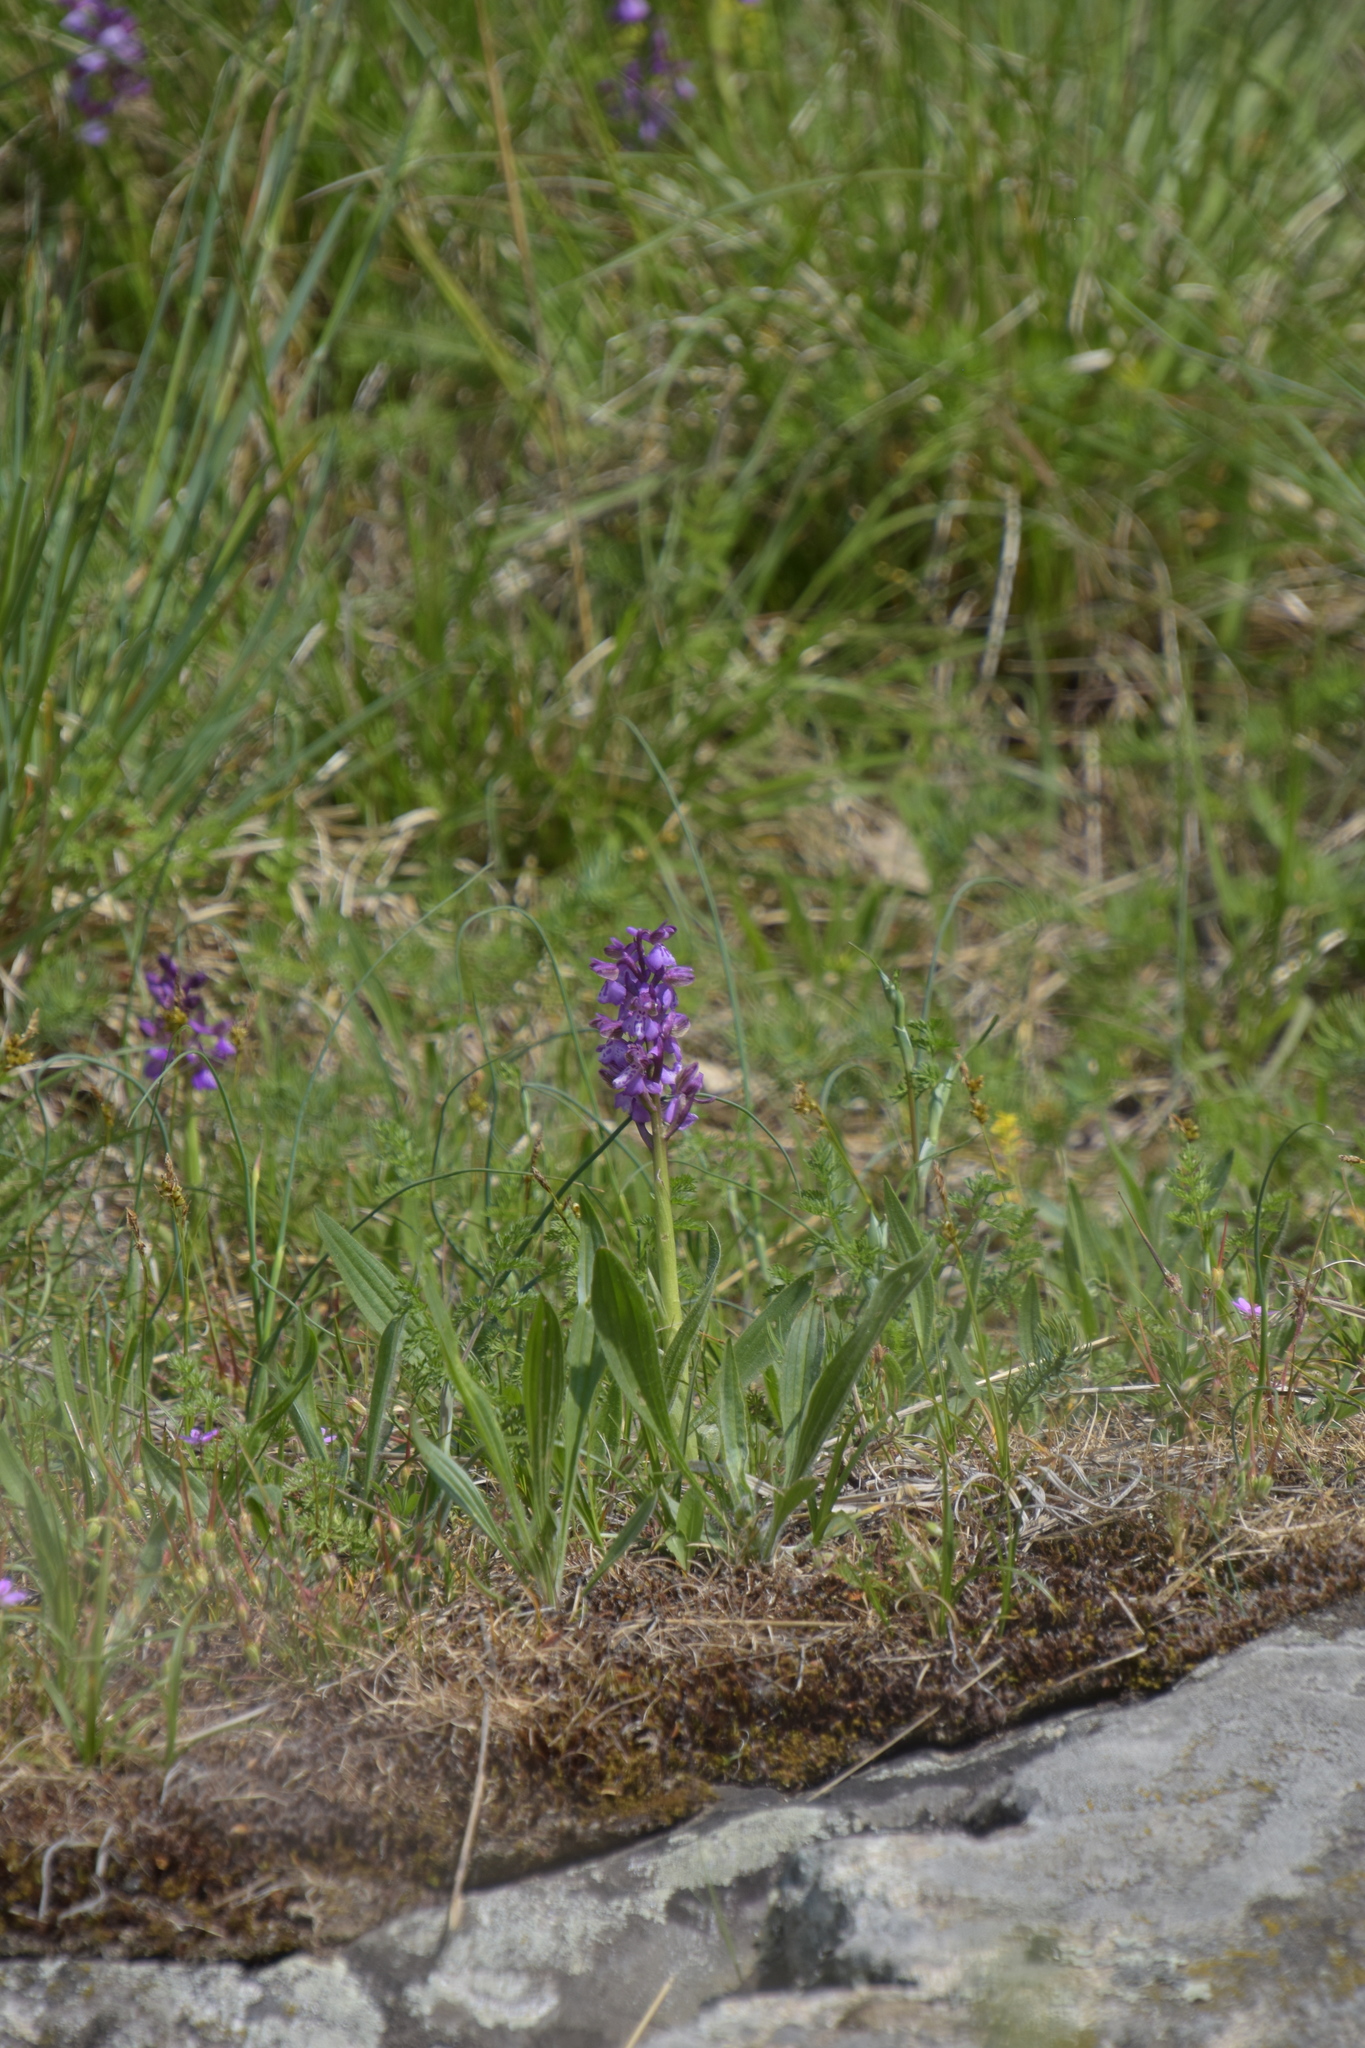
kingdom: Plantae
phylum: Tracheophyta
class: Liliopsida
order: Asparagales
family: Orchidaceae
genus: Anacamptis
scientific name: Anacamptis morio
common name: Green-winged orchid
